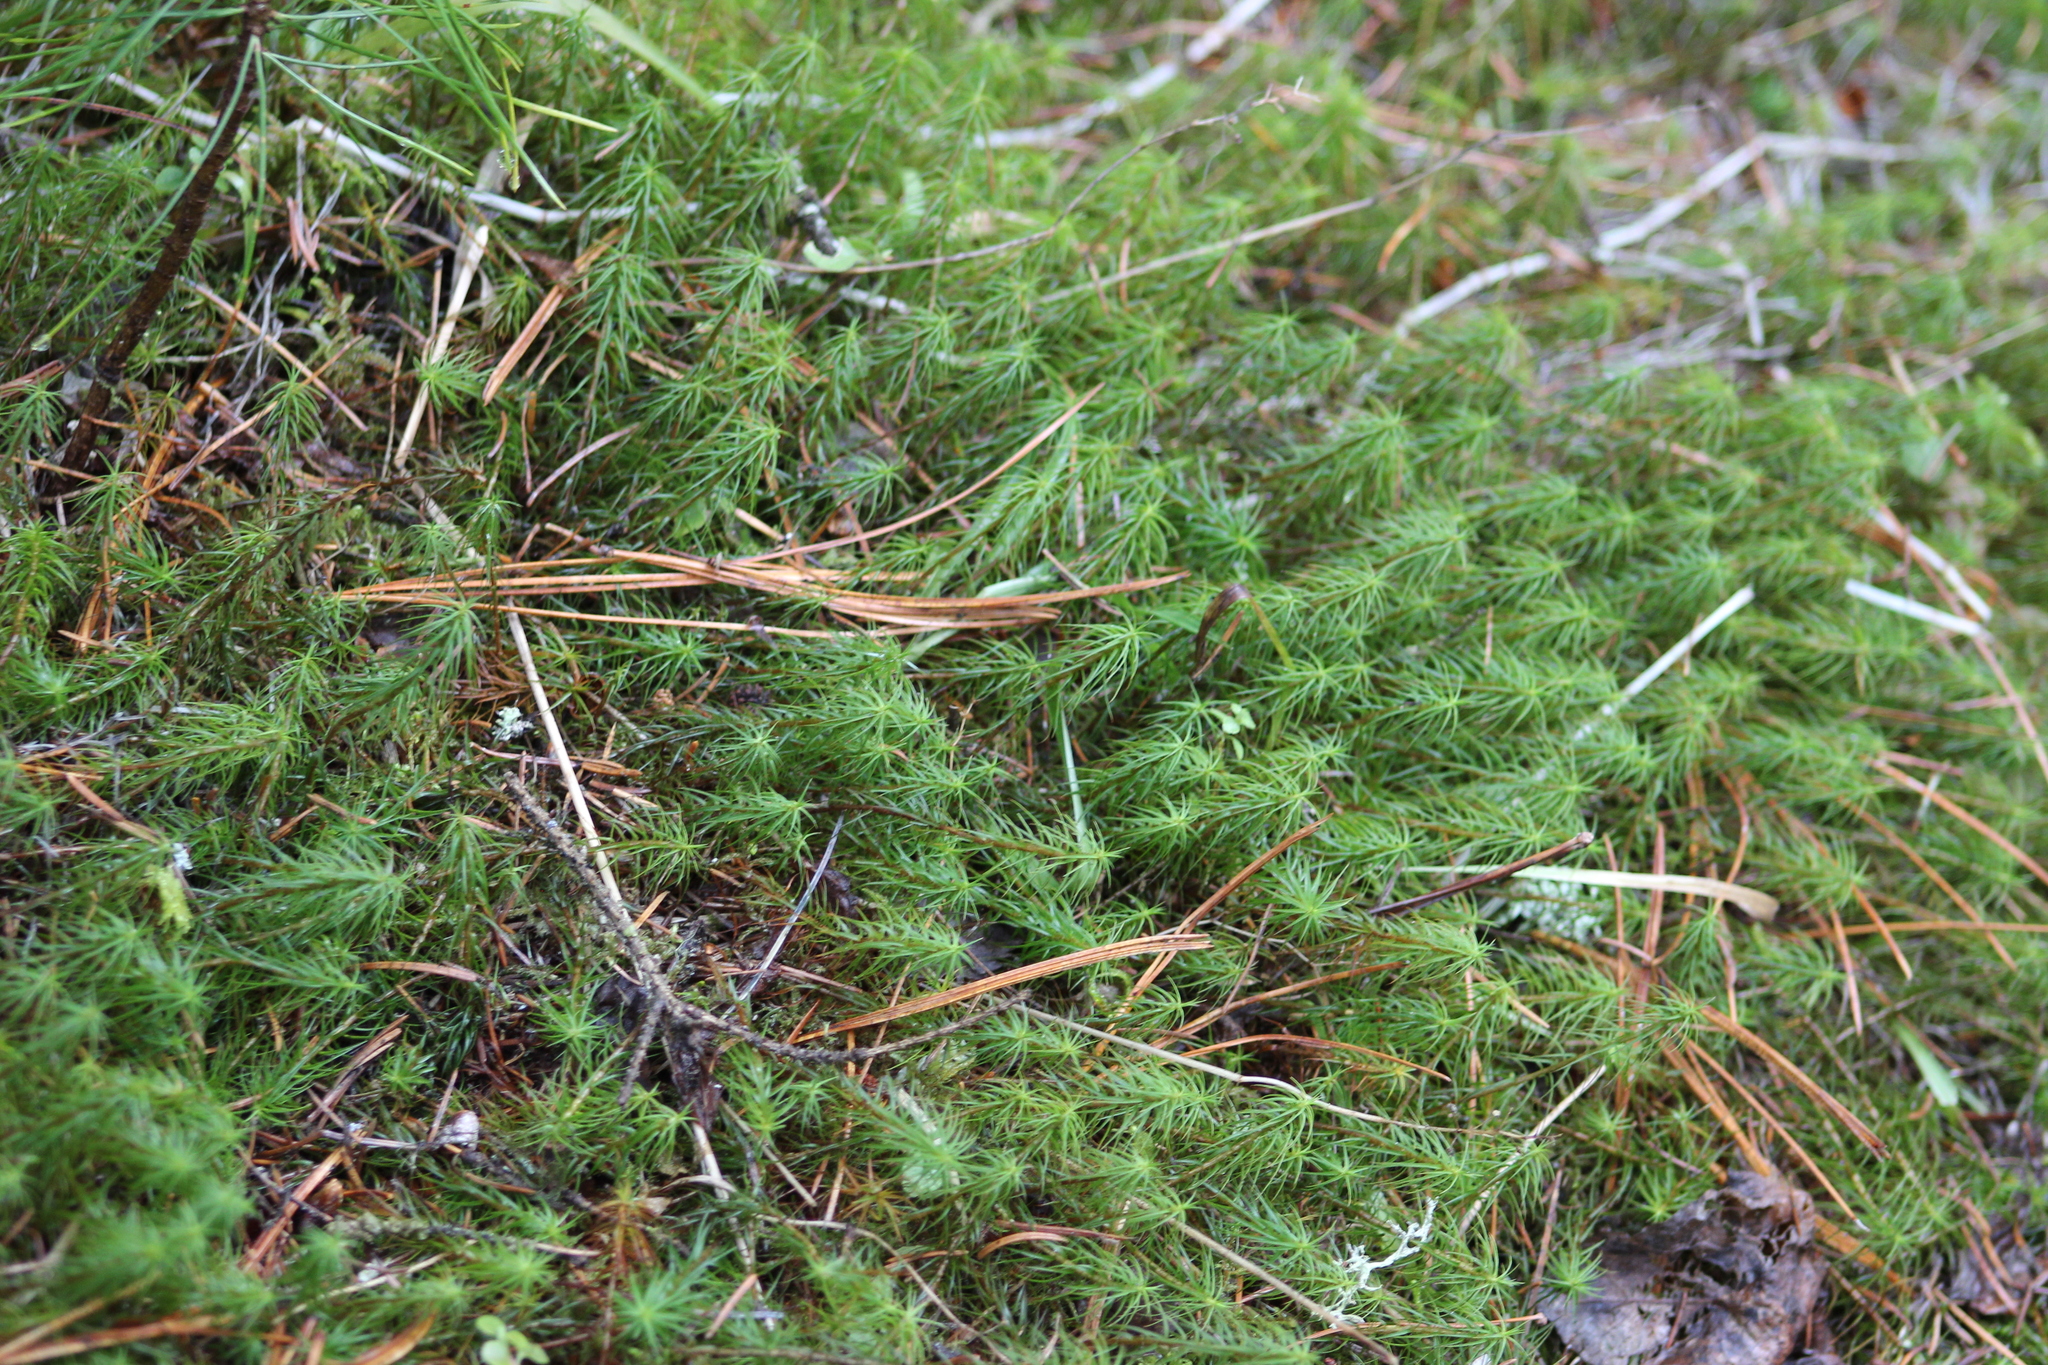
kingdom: Plantae
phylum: Bryophyta
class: Polytrichopsida
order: Polytrichales
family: Polytrichaceae
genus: Polytrichum
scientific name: Polytrichum commune
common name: Common haircap
